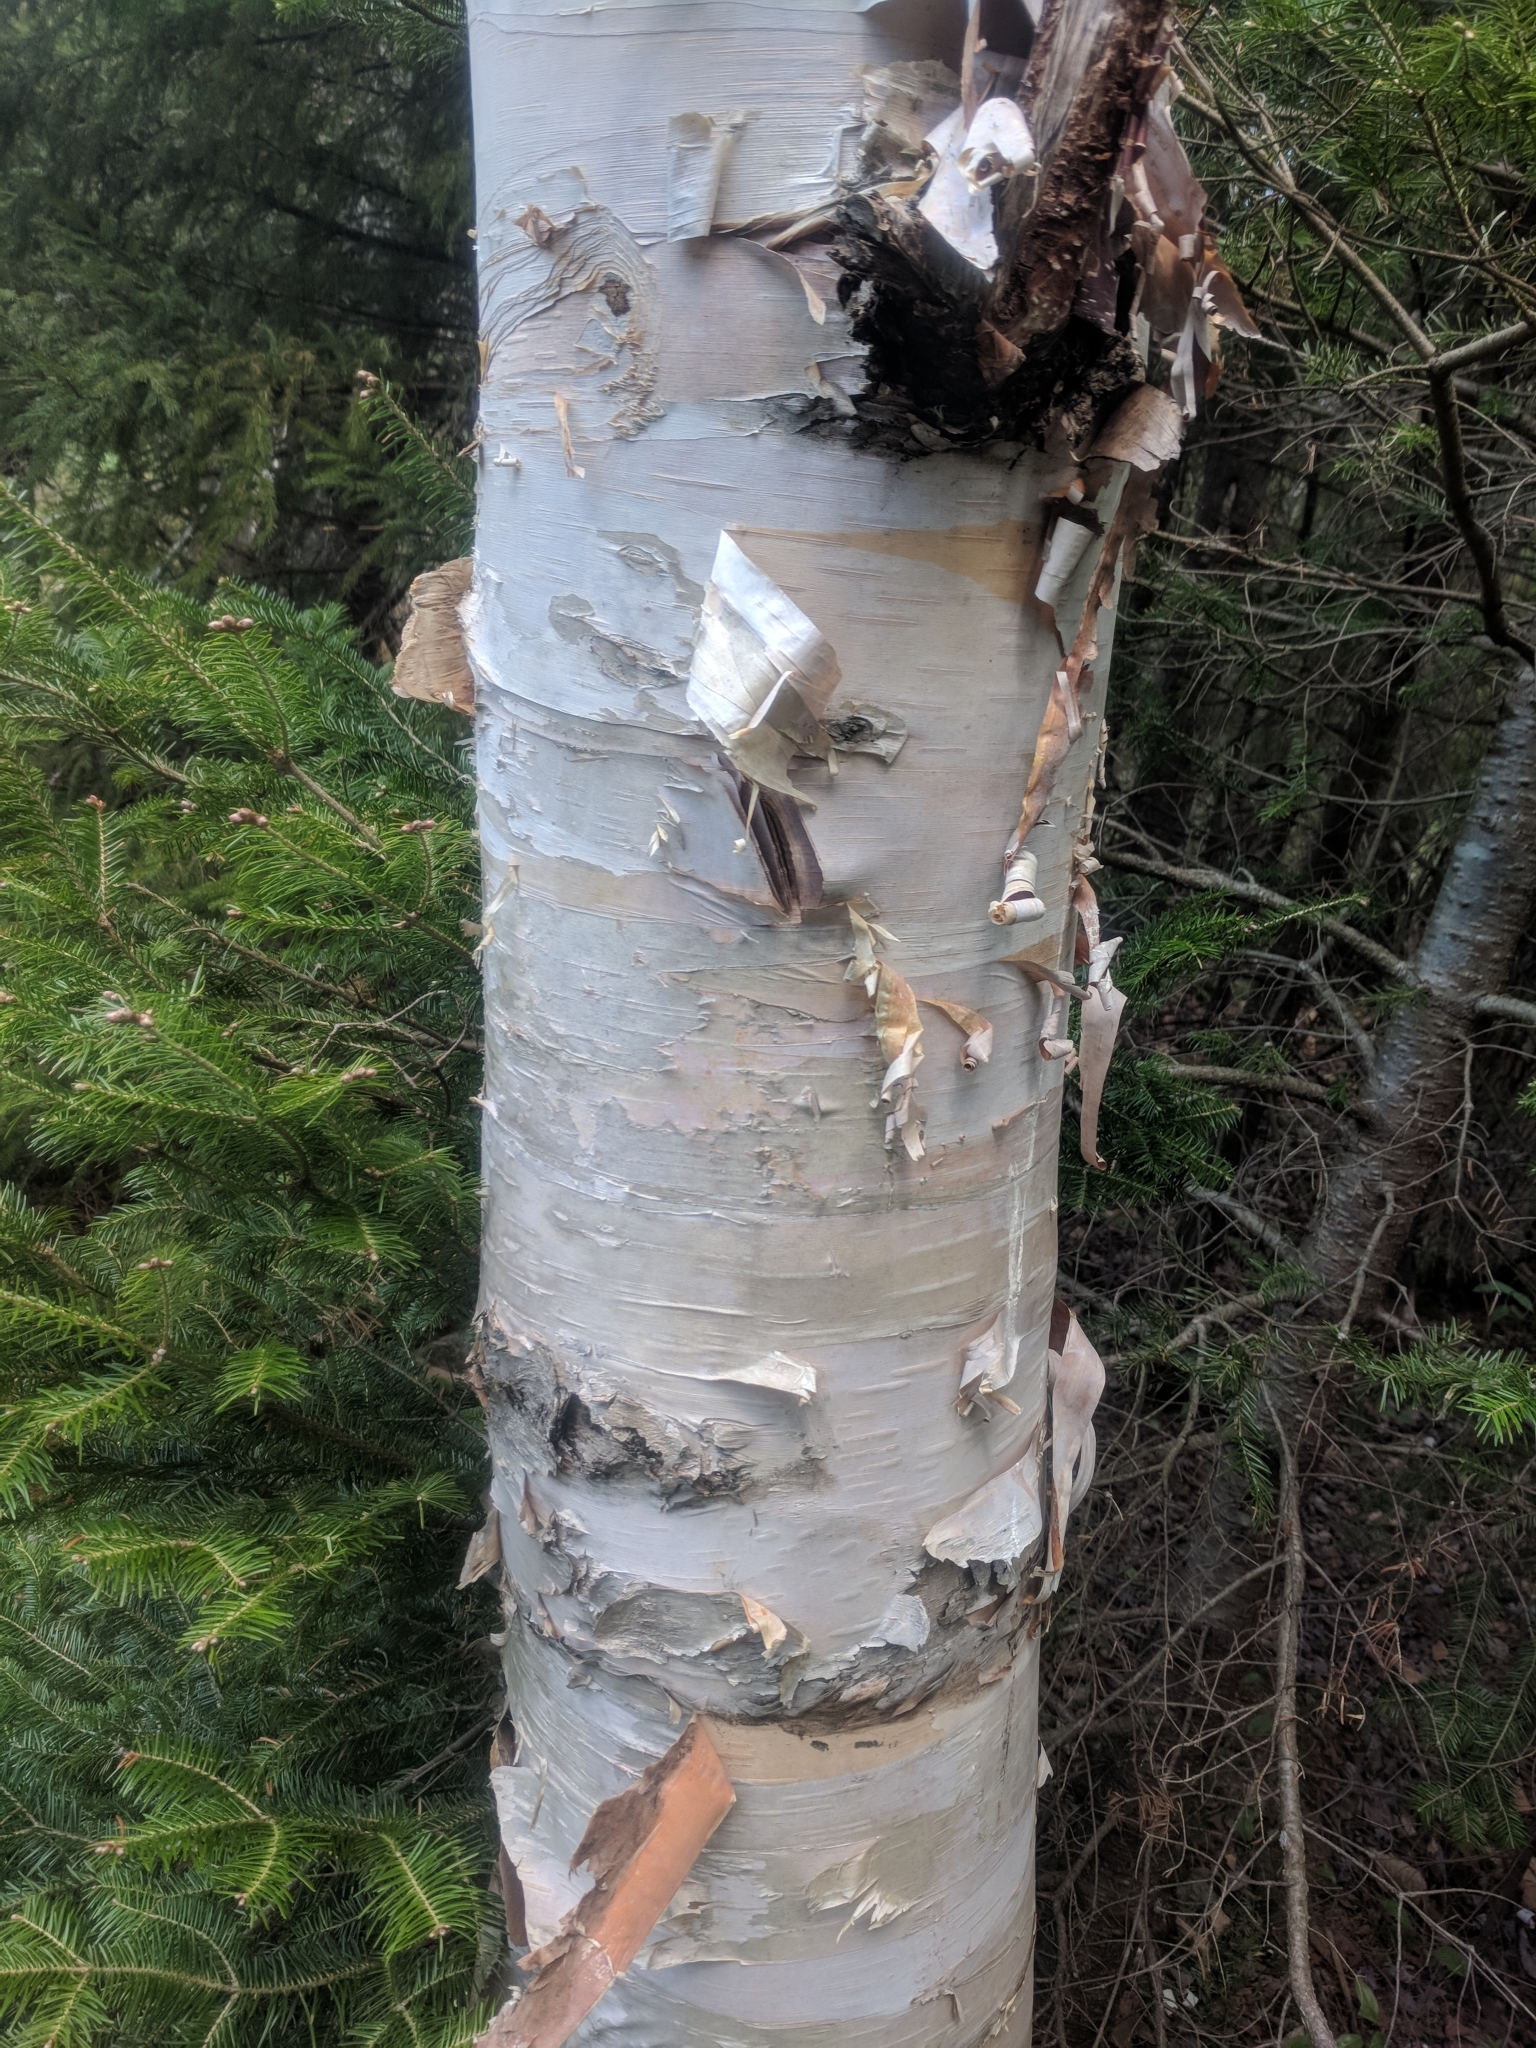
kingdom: Plantae
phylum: Tracheophyta
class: Magnoliopsida
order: Fagales
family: Betulaceae
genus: Betula
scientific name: Betula papyrifera
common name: Paper birch
